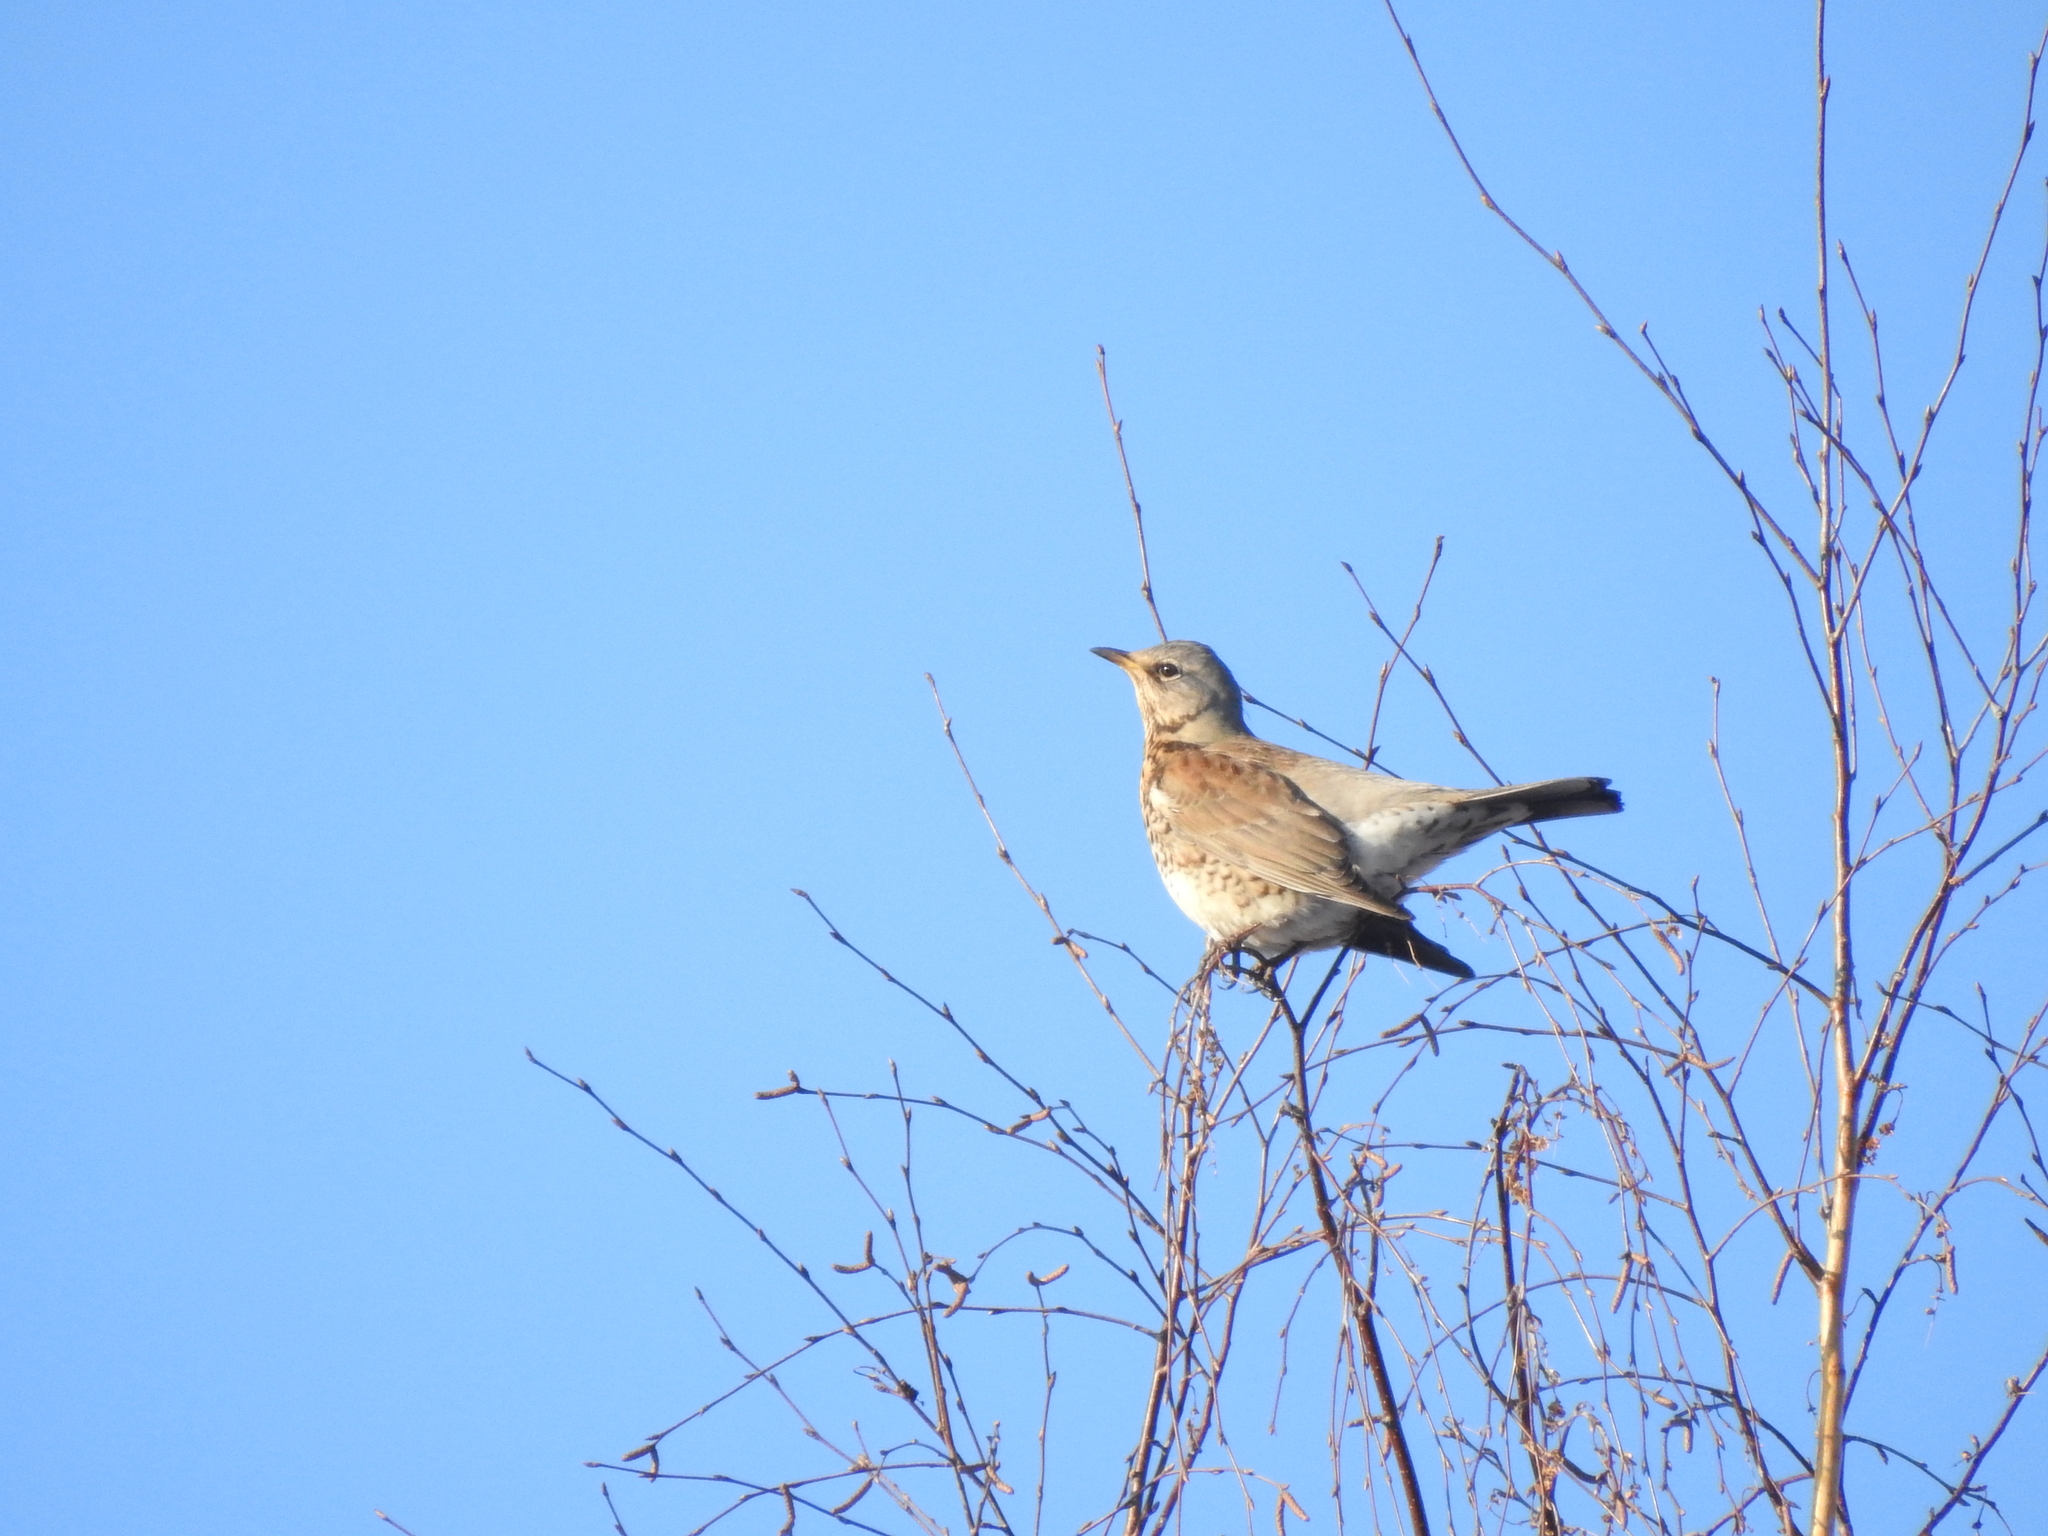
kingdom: Animalia
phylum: Chordata
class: Aves
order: Passeriformes
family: Turdidae
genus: Turdus
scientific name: Turdus pilaris
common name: Fieldfare
